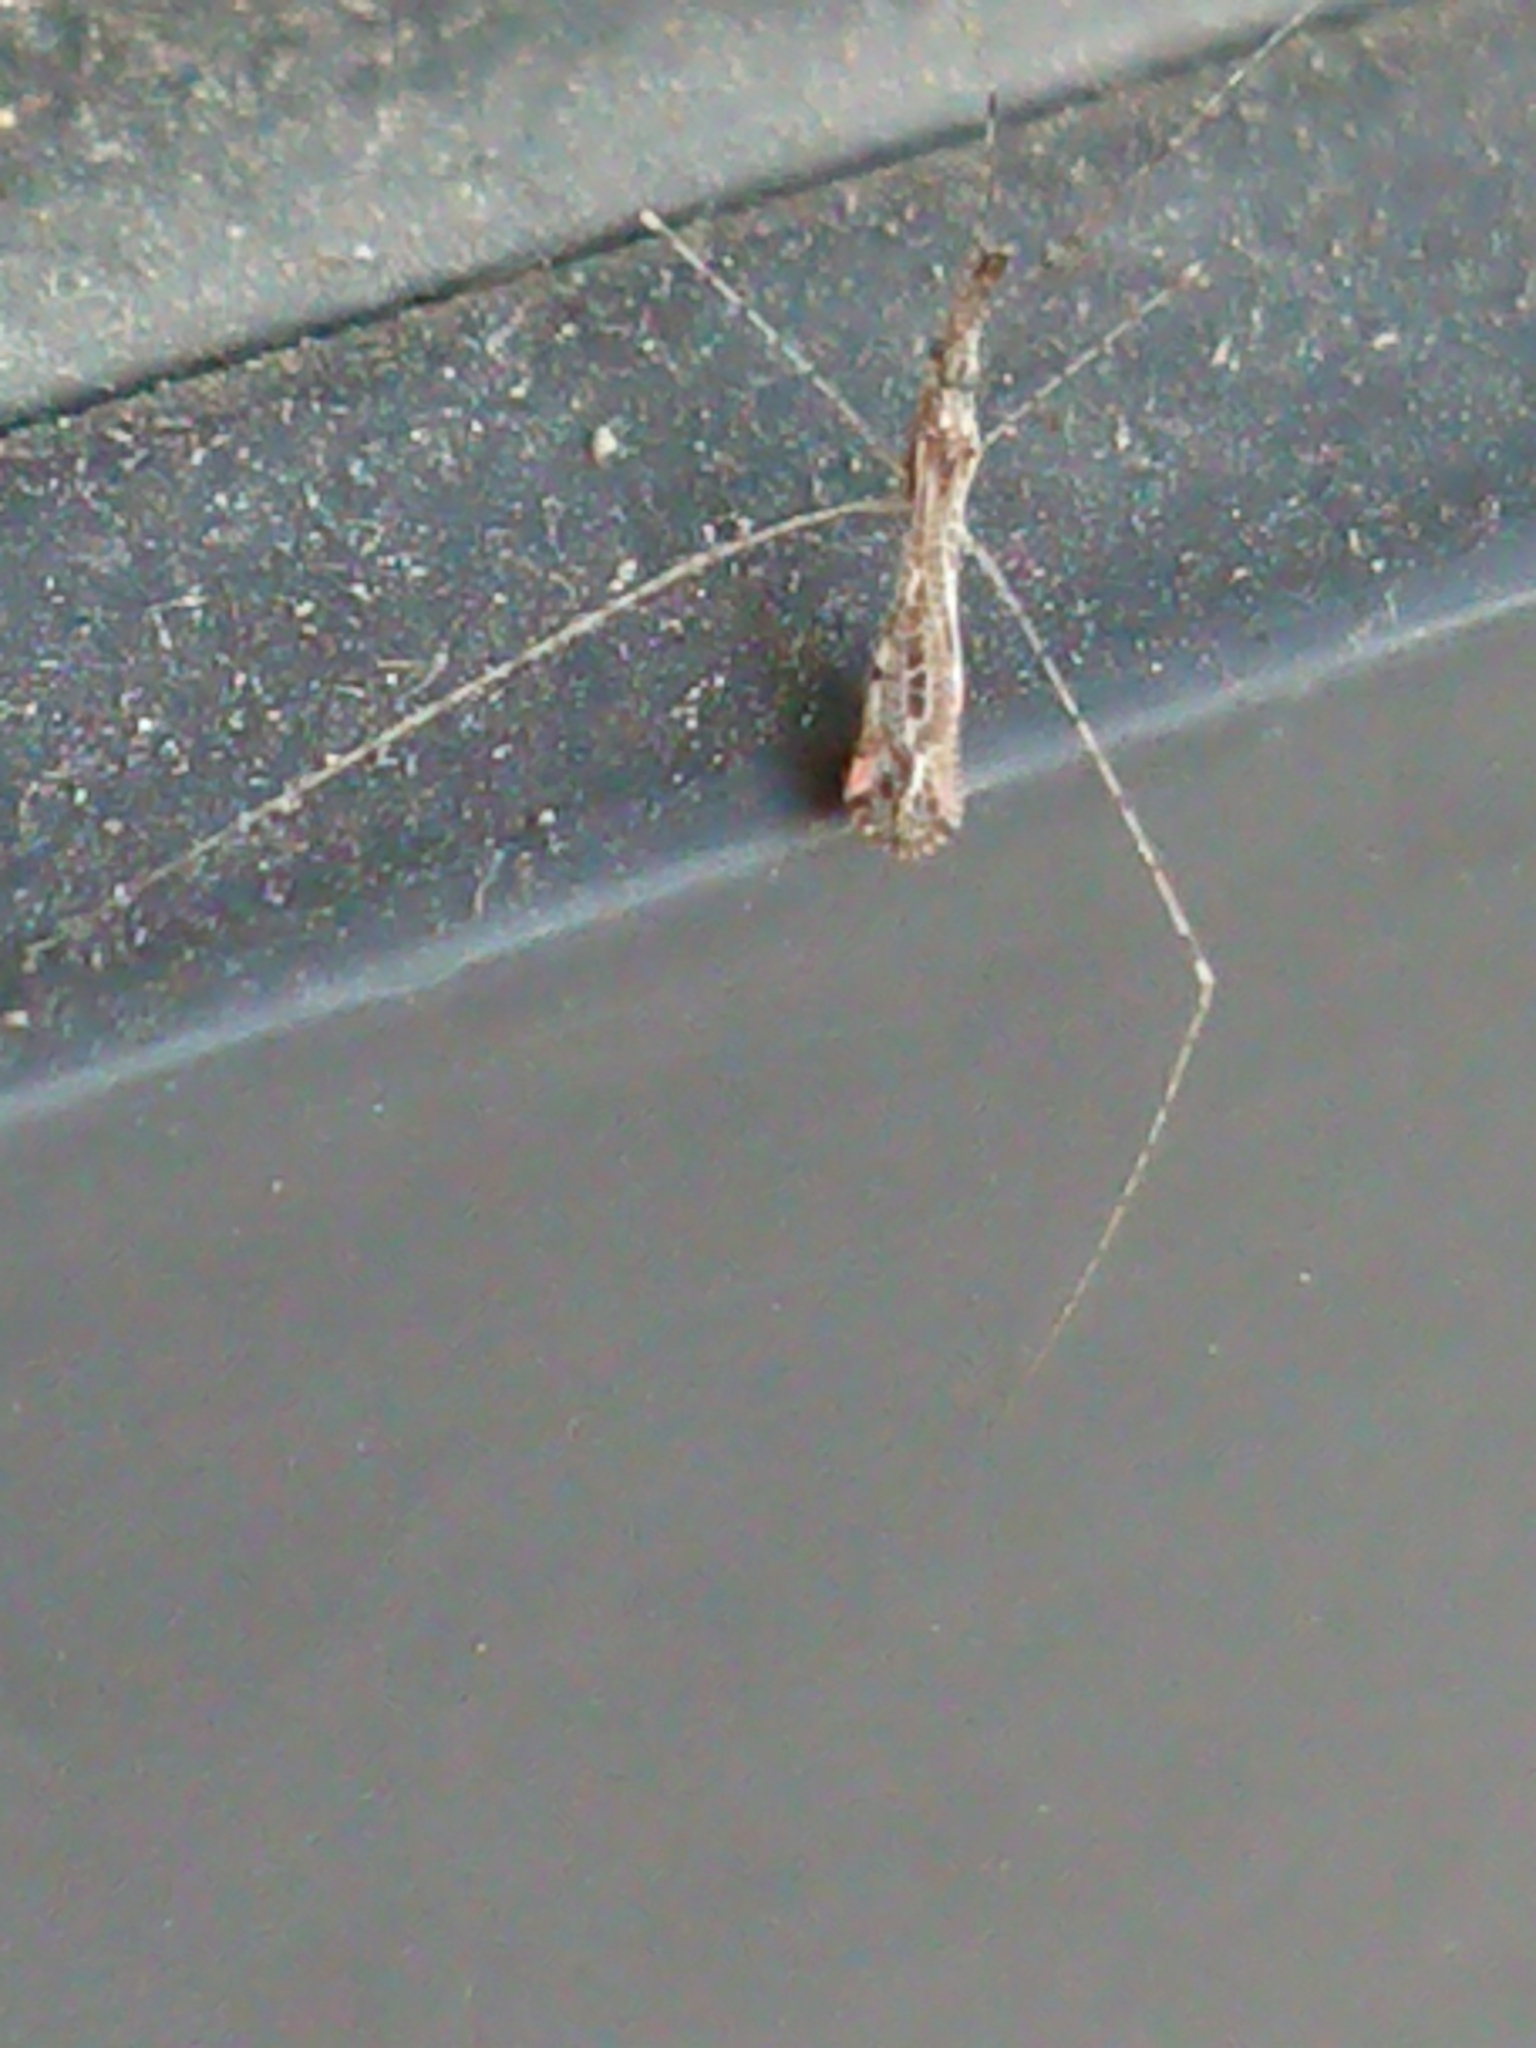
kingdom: Animalia
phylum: Arthropoda
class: Insecta
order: Hemiptera
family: Reduviidae
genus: Empicoris
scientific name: Empicoris rubromaculatus
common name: Thread-legged bug
